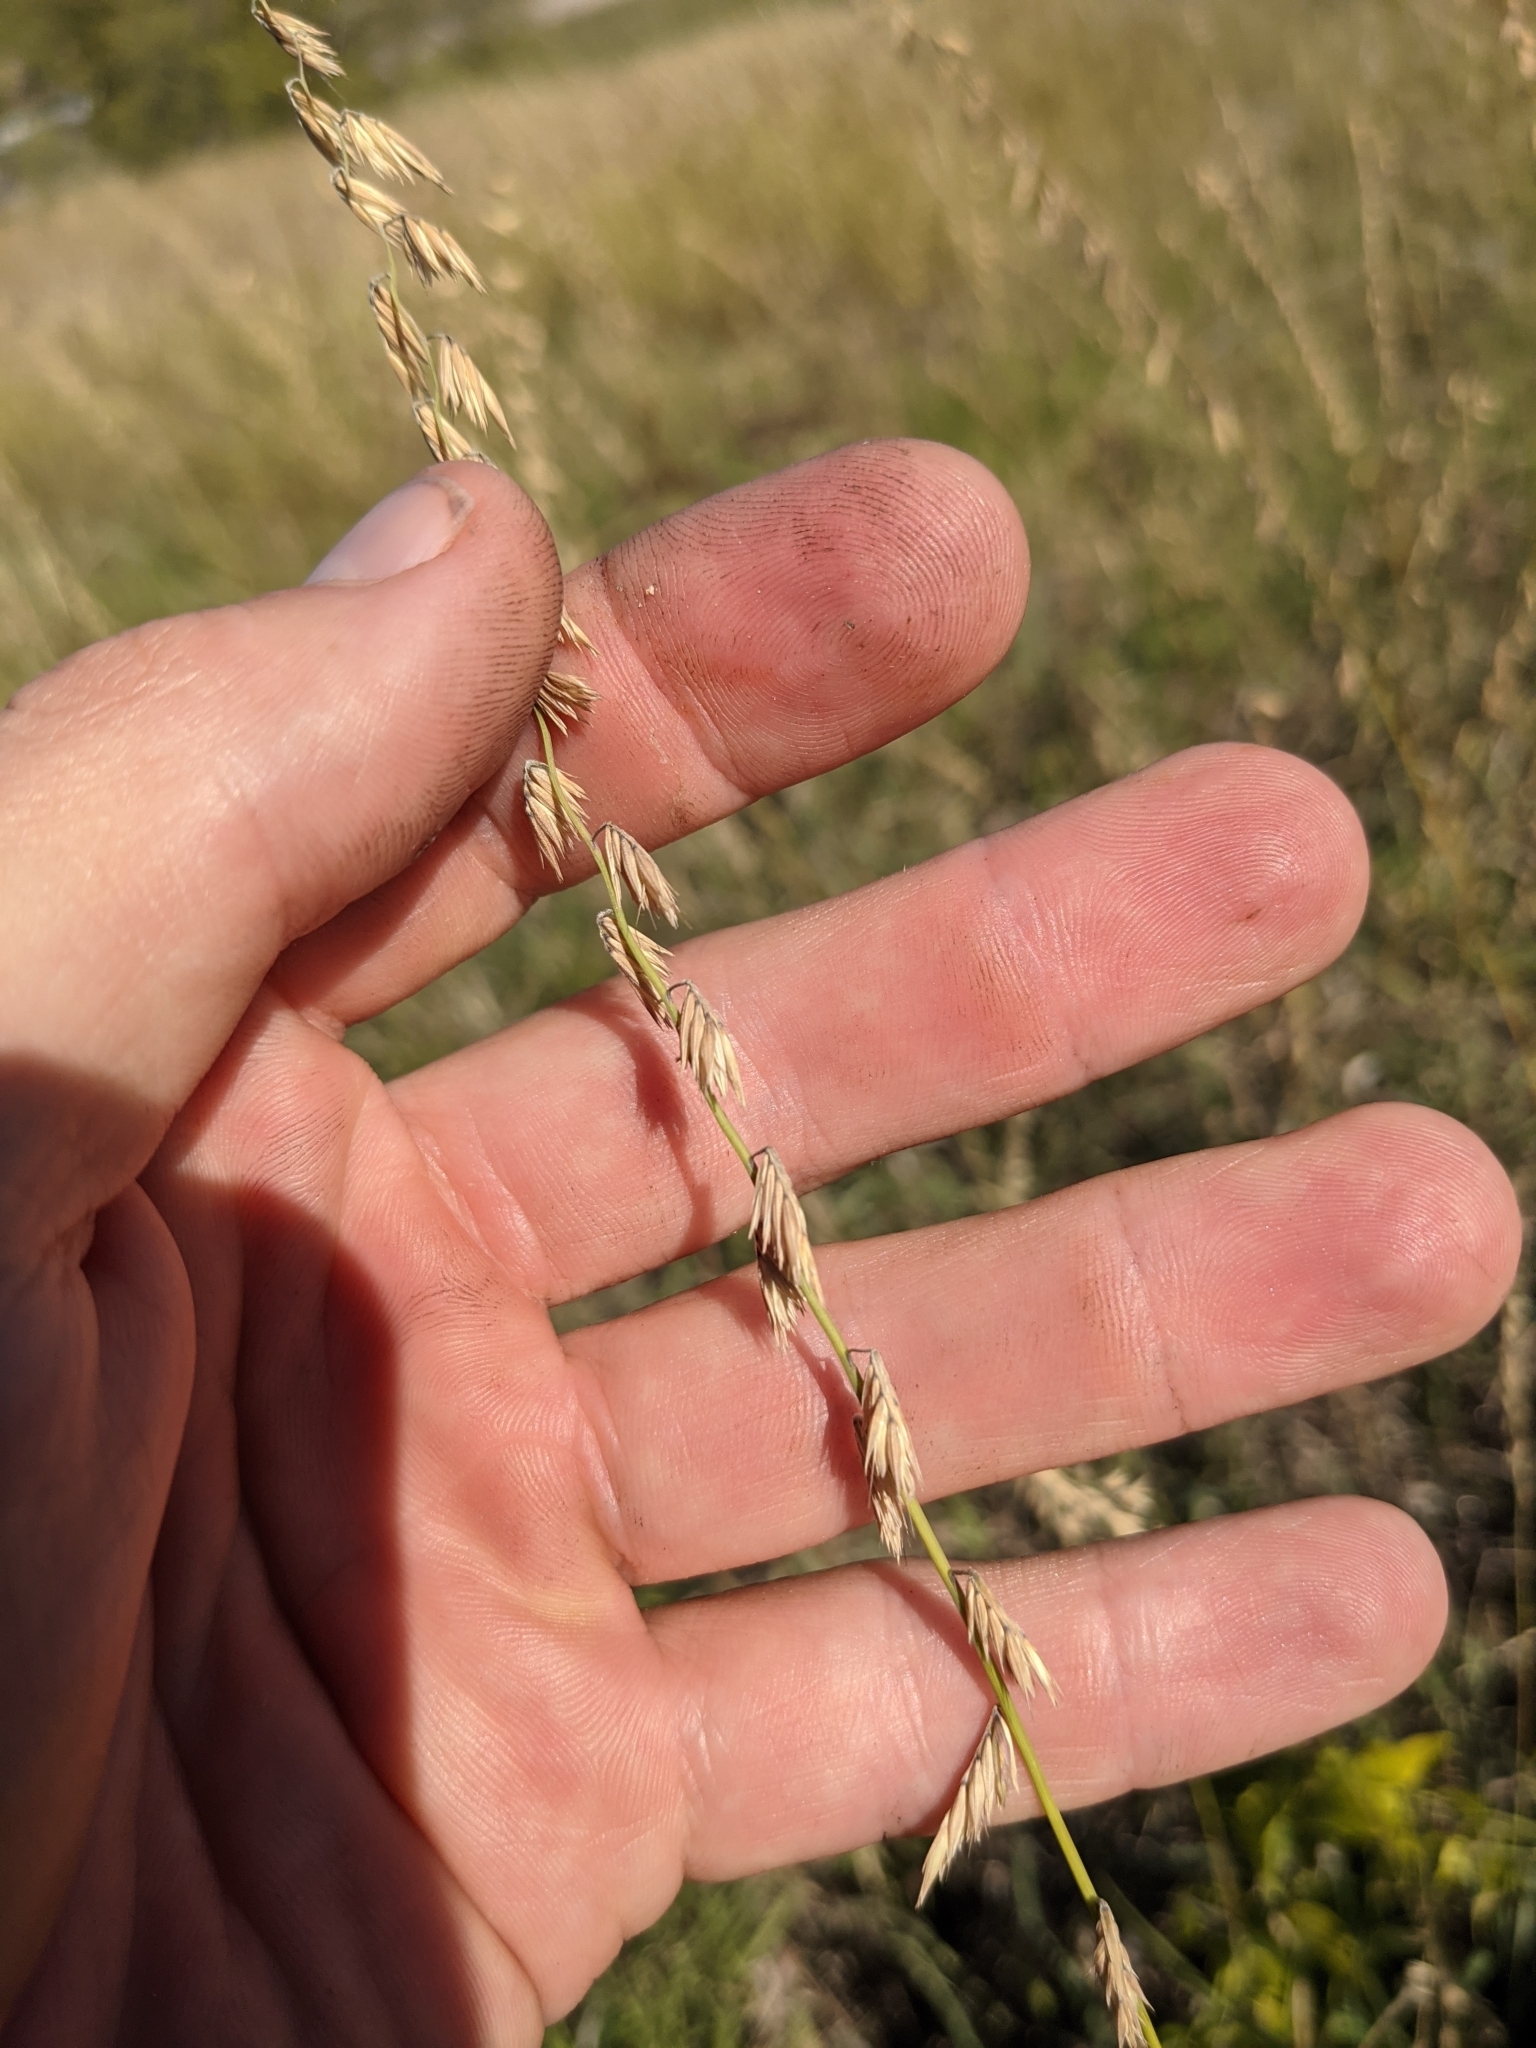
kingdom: Plantae
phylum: Tracheophyta
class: Liliopsida
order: Poales
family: Poaceae
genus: Bouteloua
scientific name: Bouteloua curtipendula
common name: Side-oats grama
